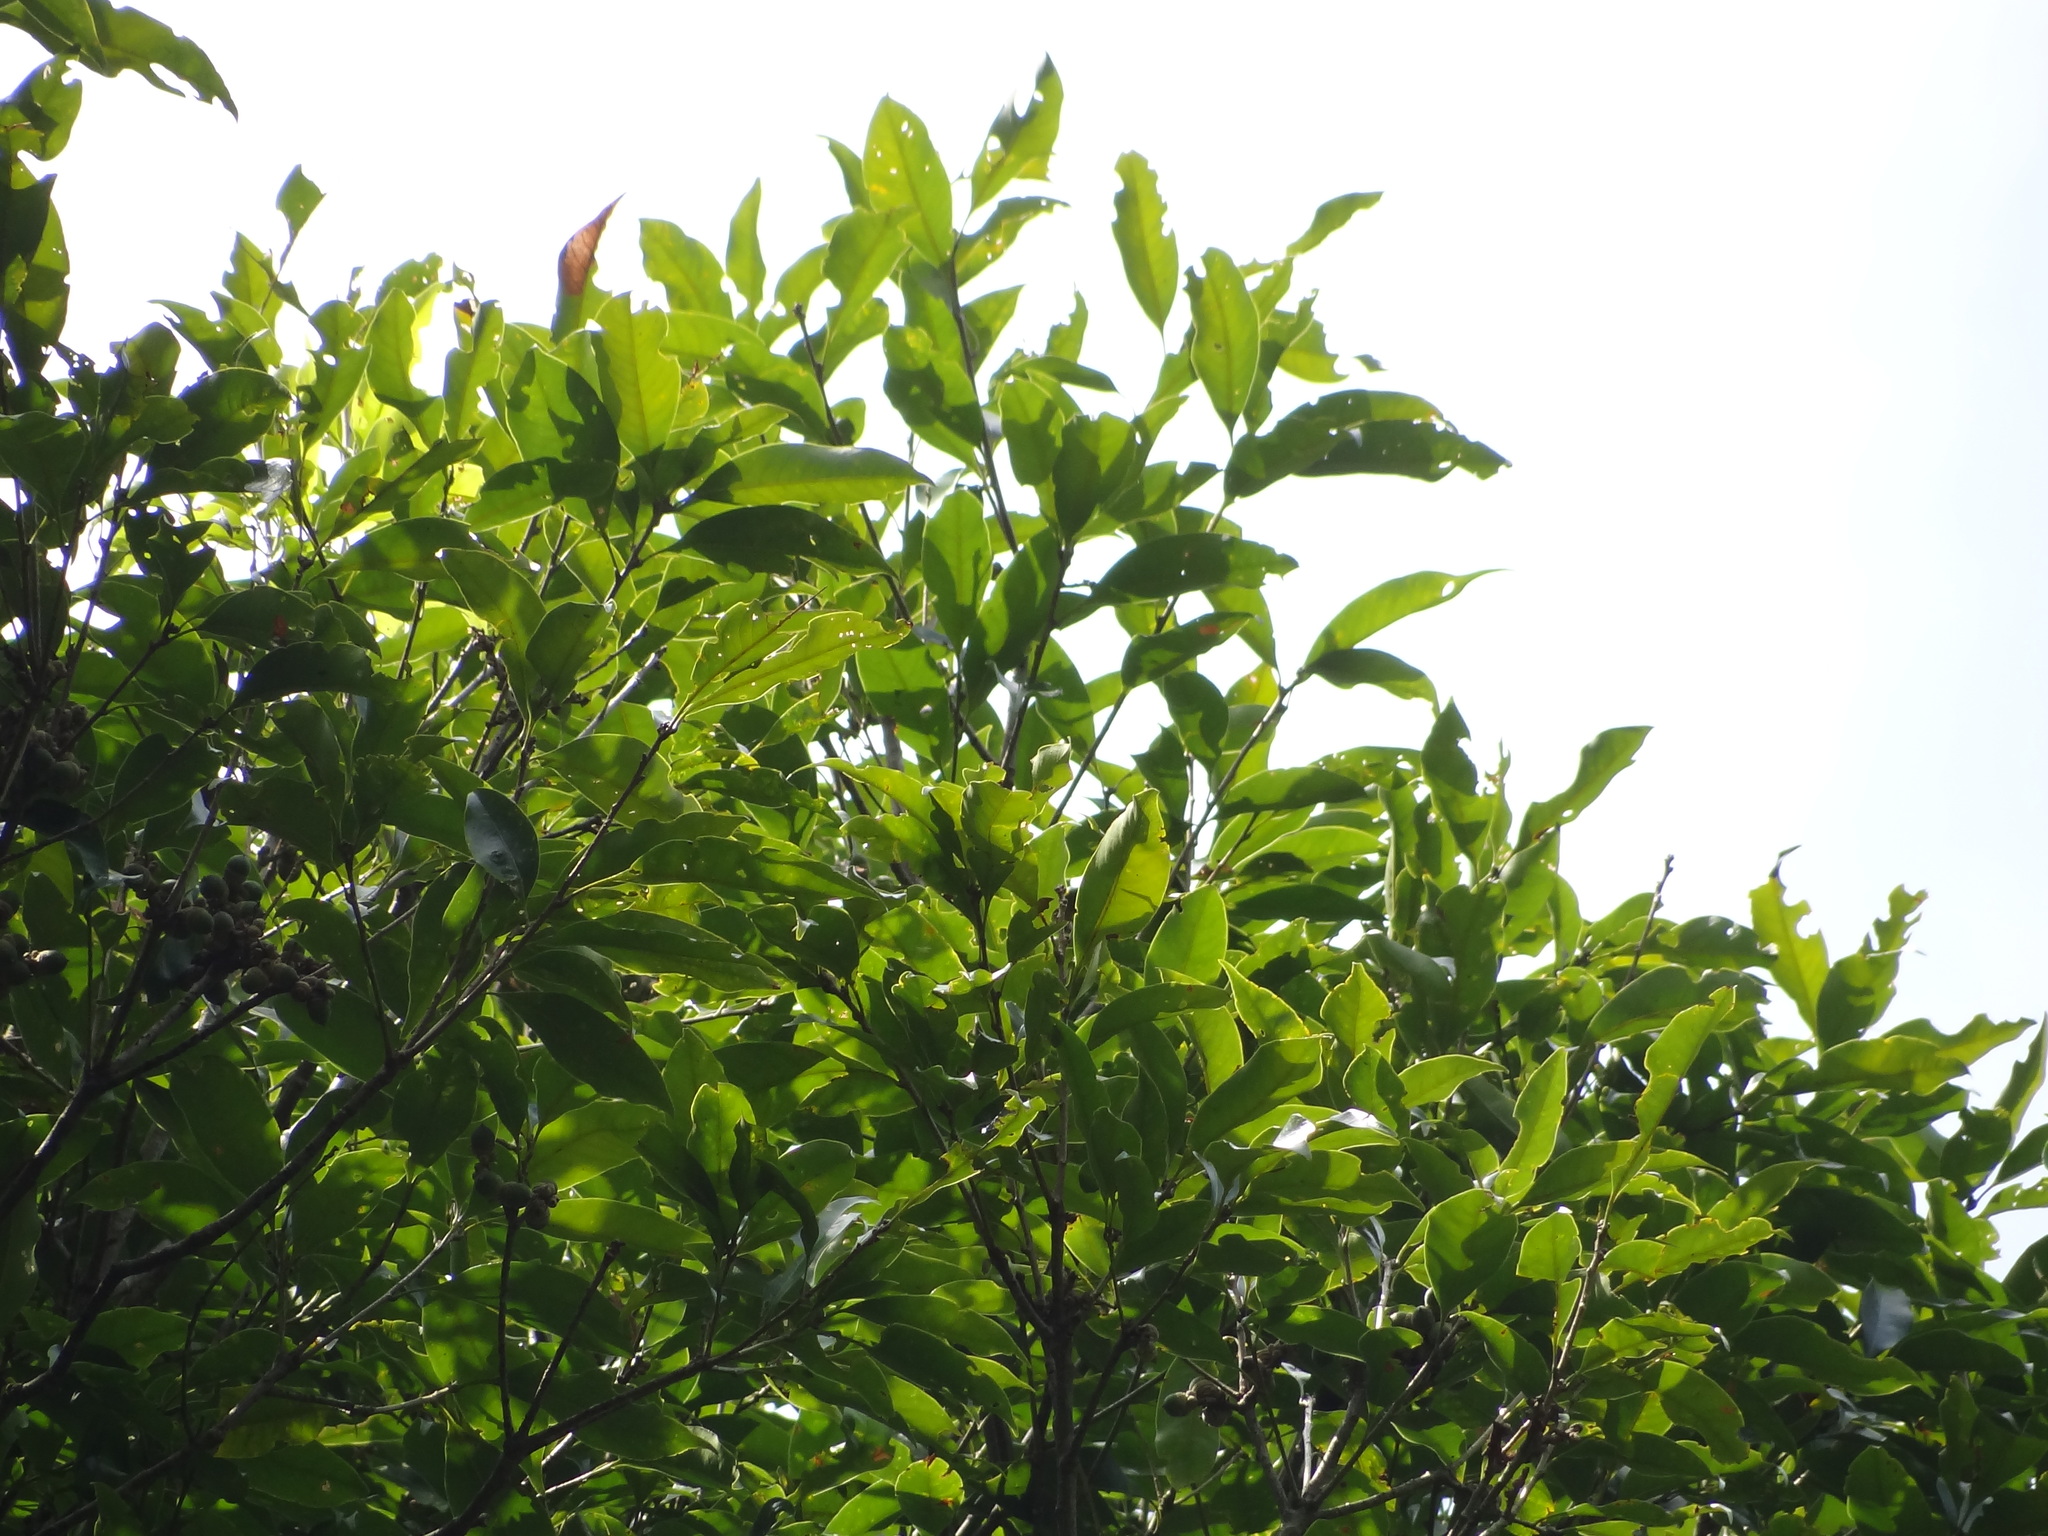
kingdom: Plantae
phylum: Tracheophyta
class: Magnoliopsida
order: Fagales
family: Fagaceae
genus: Lithocarpus
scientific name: Lithocarpus glaber
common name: Japanese-oak
